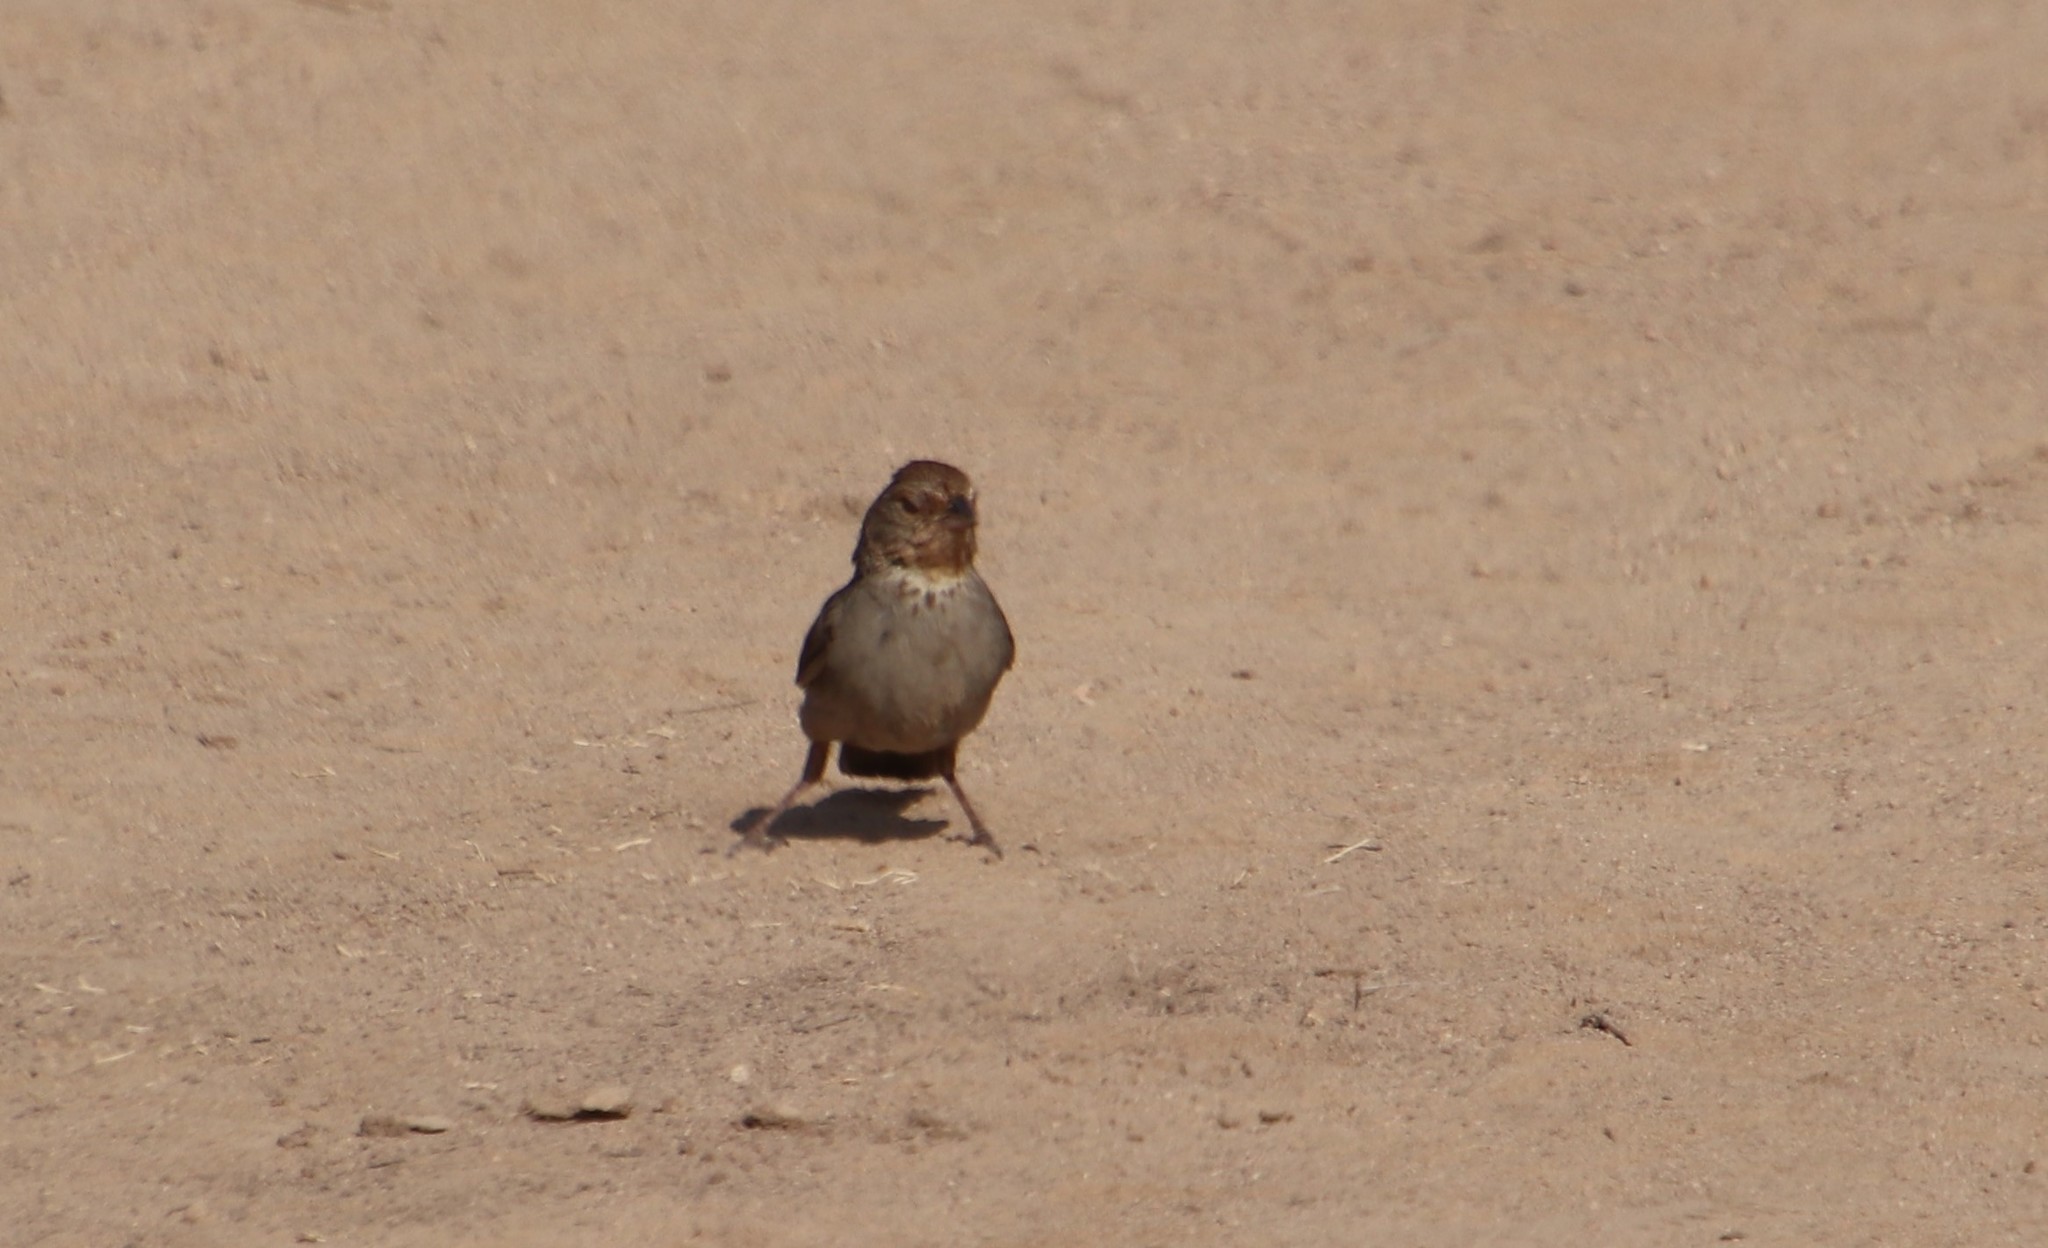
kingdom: Animalia
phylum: Chordata
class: Aves
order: Passeriformes
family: Passerellidae
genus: Melozone
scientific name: Melozone crissalis
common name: California towhee
